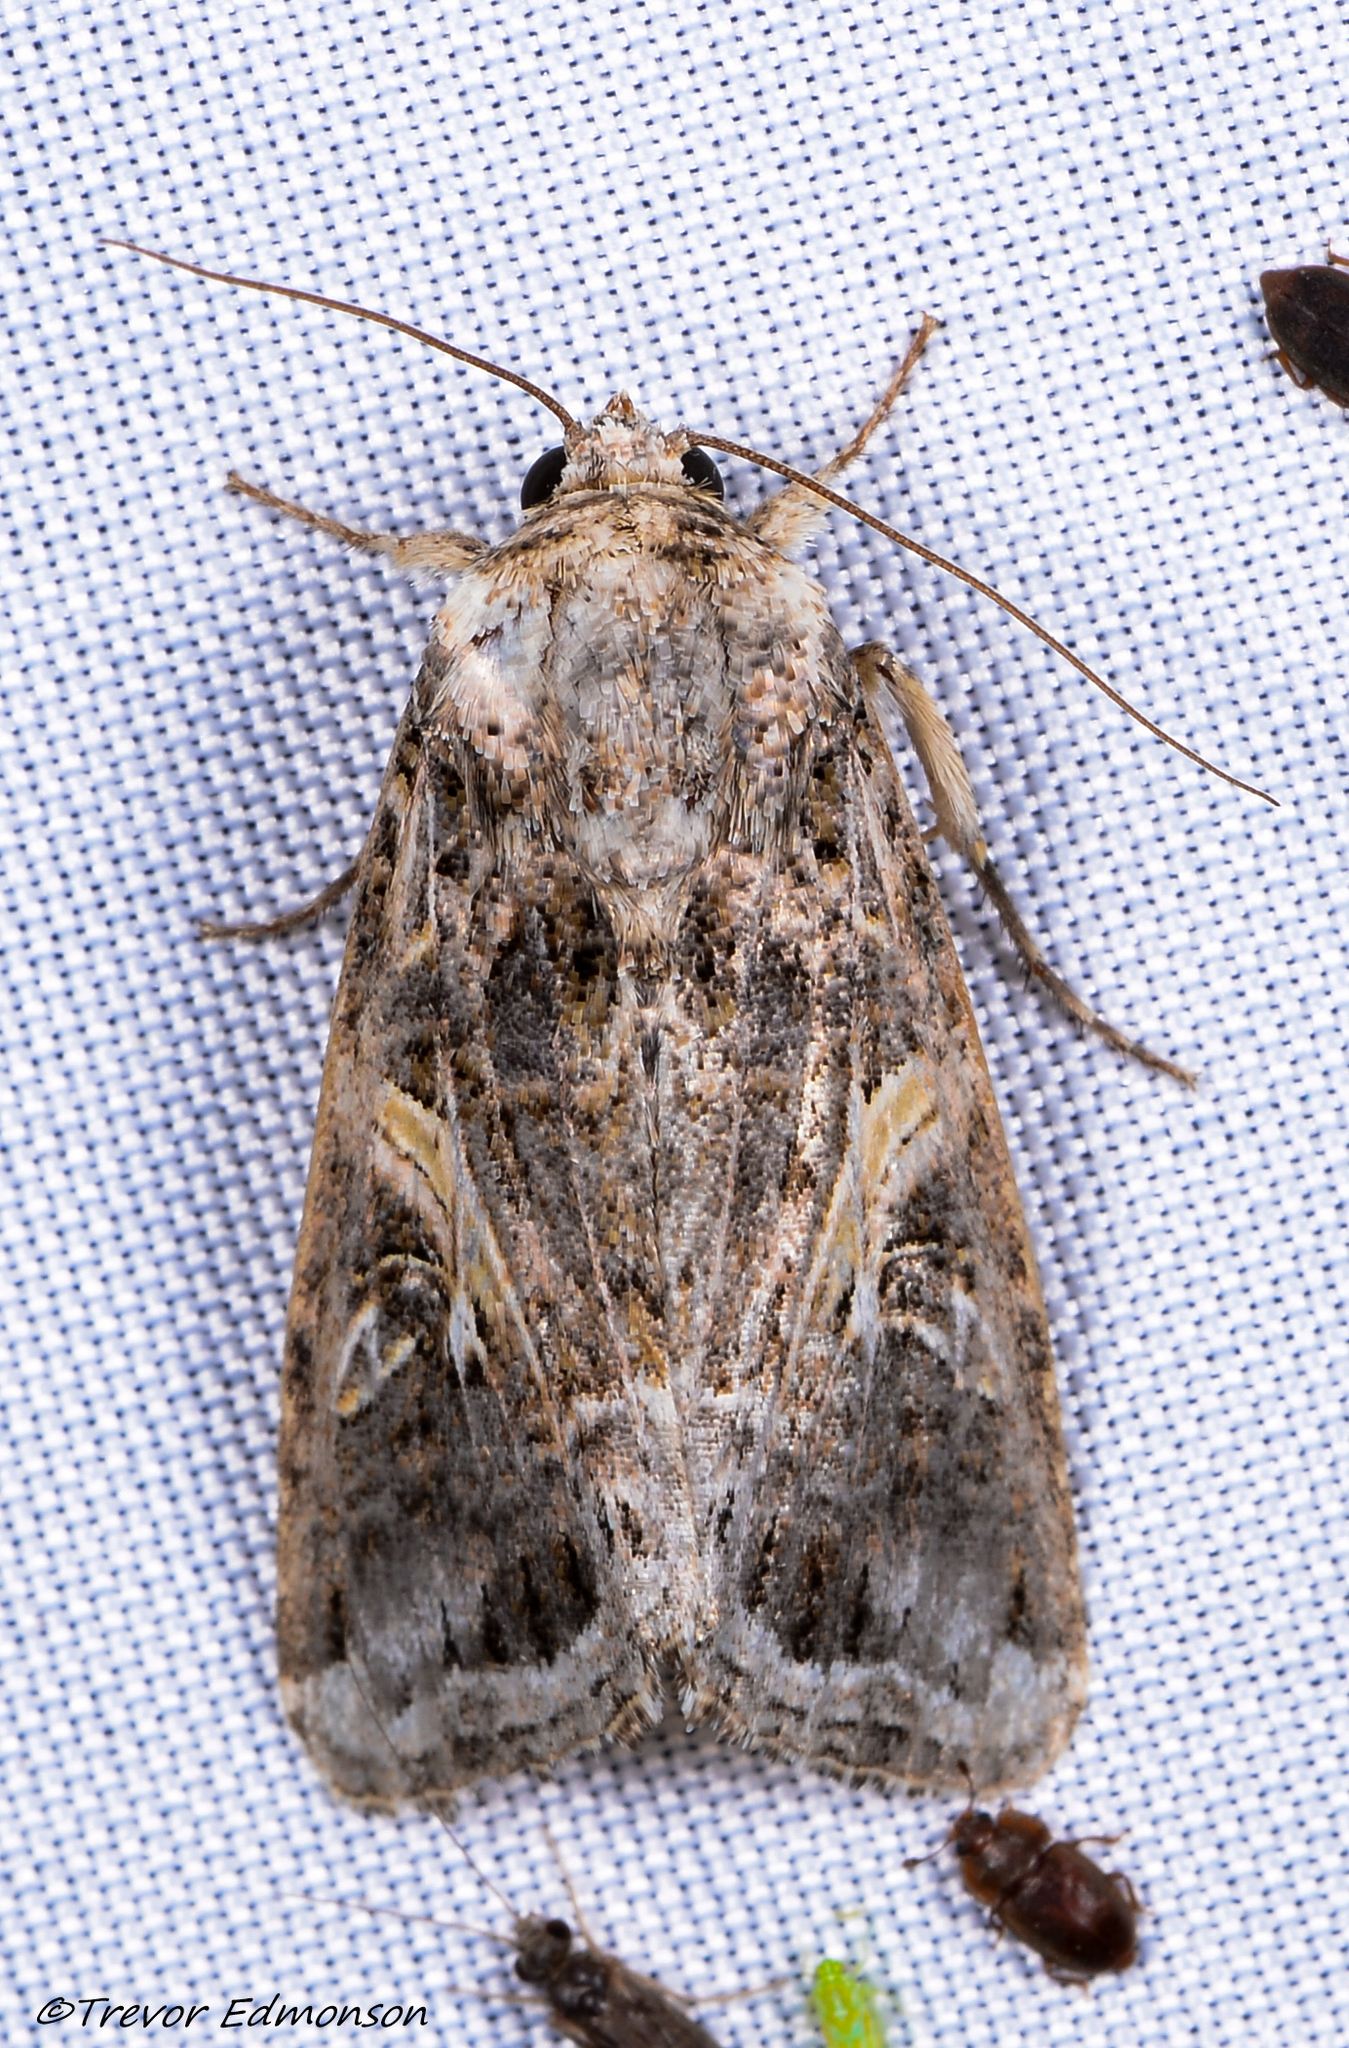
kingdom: Animalia
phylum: Arthropoda
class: Insecta
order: Lepidoptera
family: Noctuidae
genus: Spodoptera
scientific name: Spodoptera ornithogalli
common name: Yellow-striped armyworm
